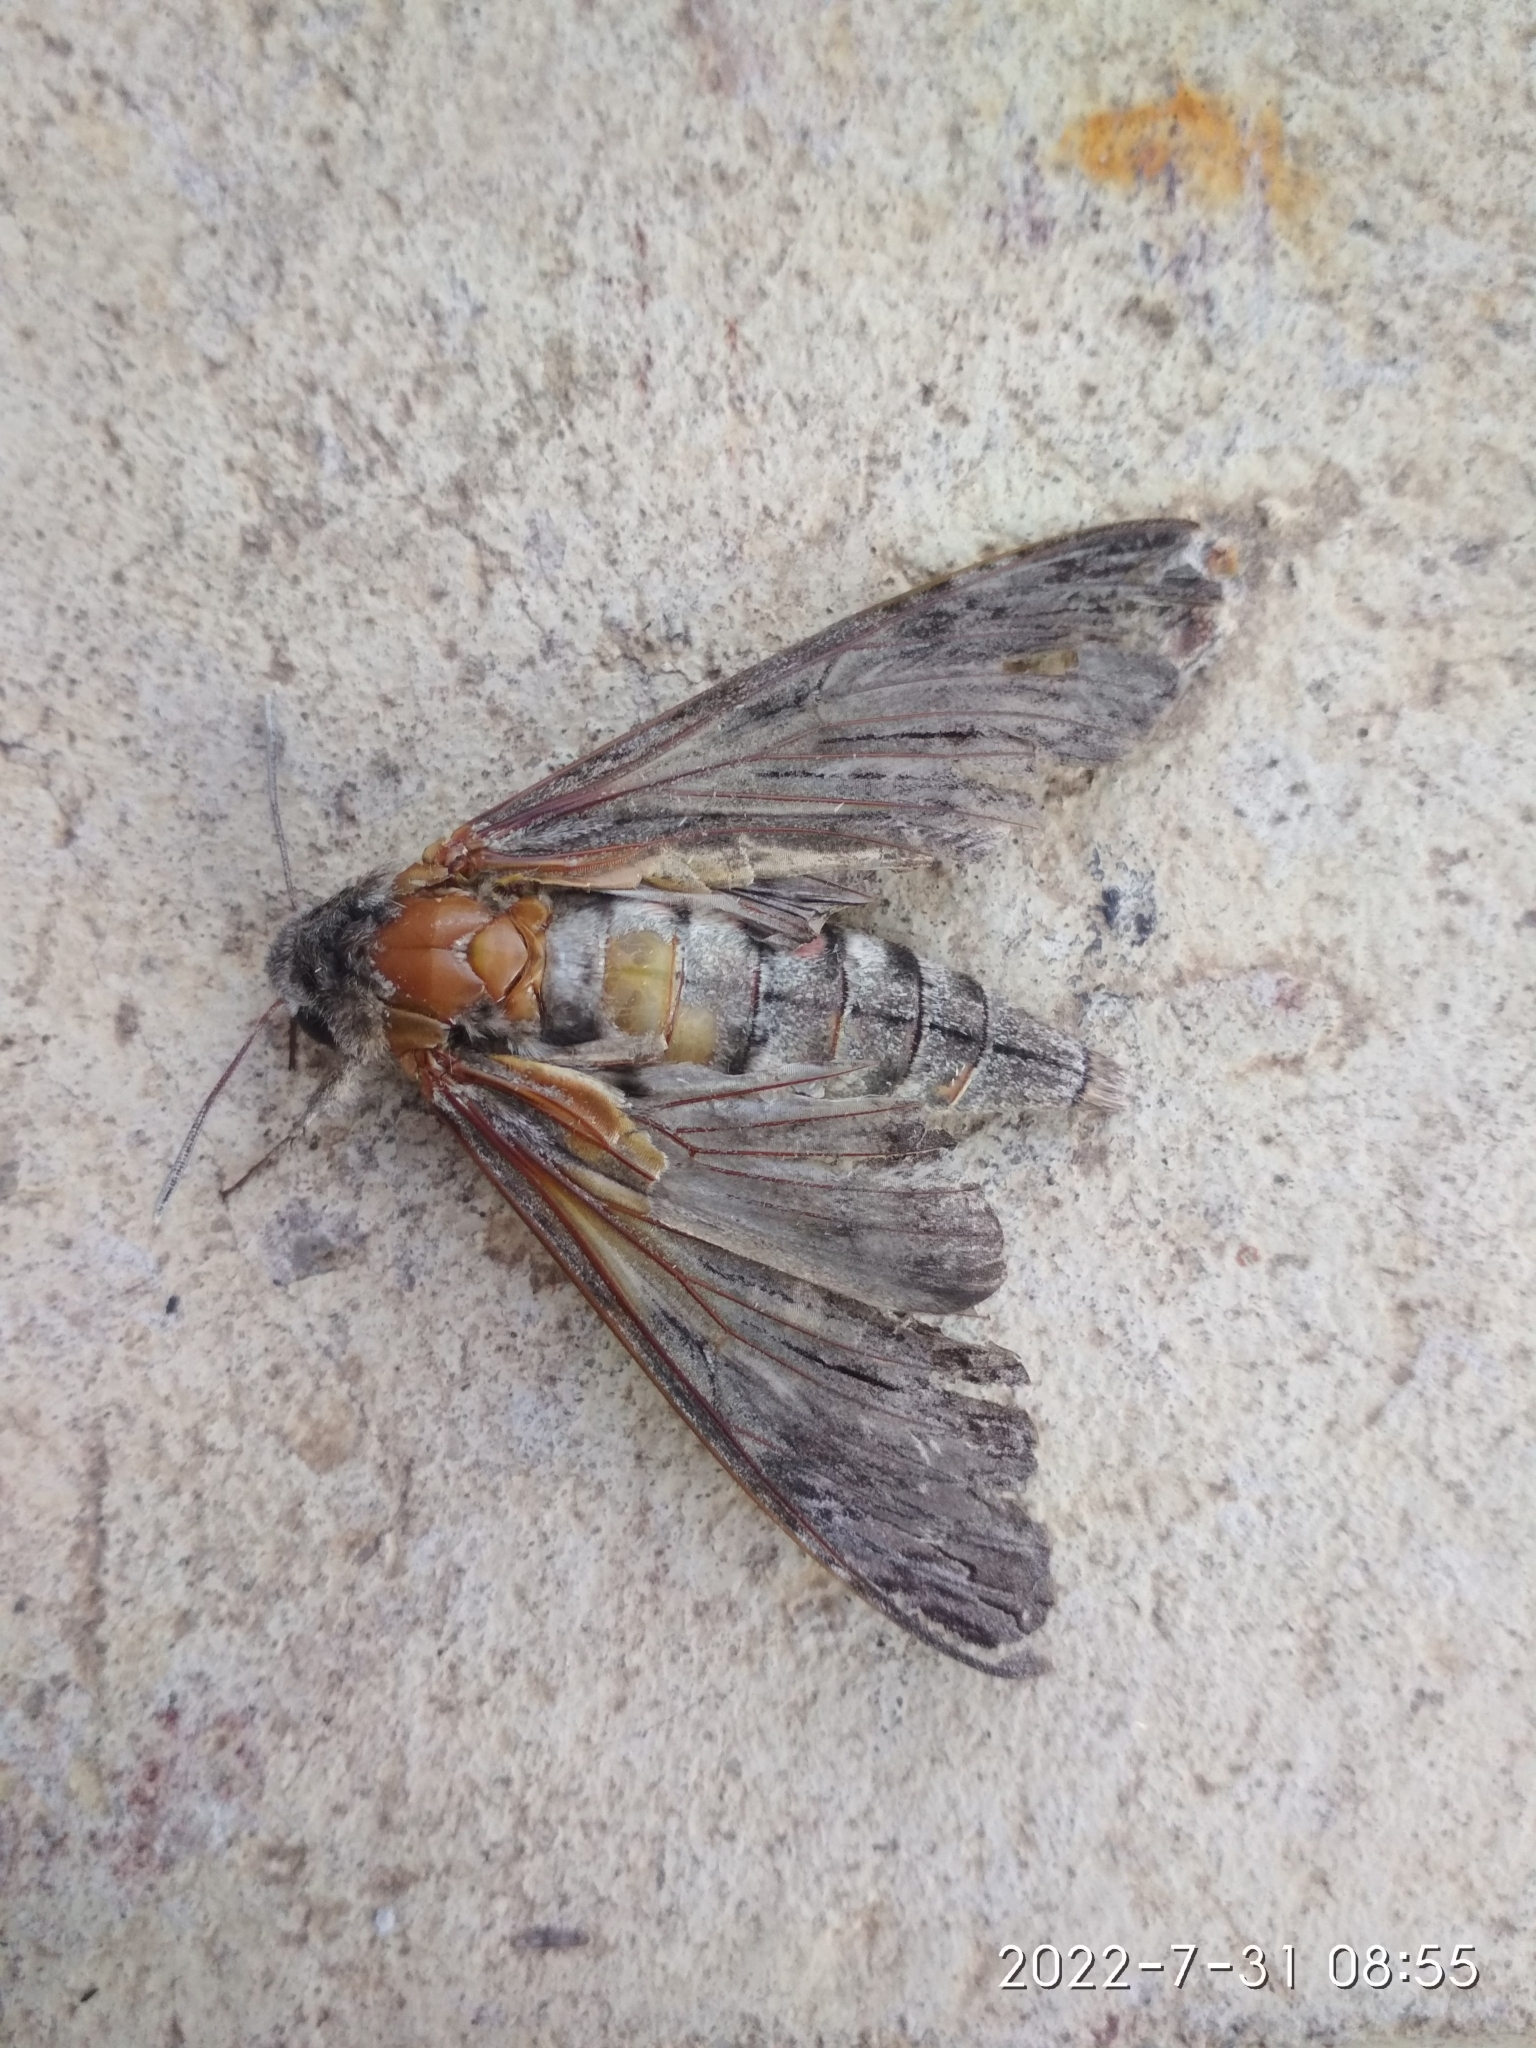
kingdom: Animalia
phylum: Arthropoda
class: Insecta
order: Lepidoptera
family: Sphingidae
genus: Agrius
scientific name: Agrius convolvuli
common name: Convolvulus hawkmoth
